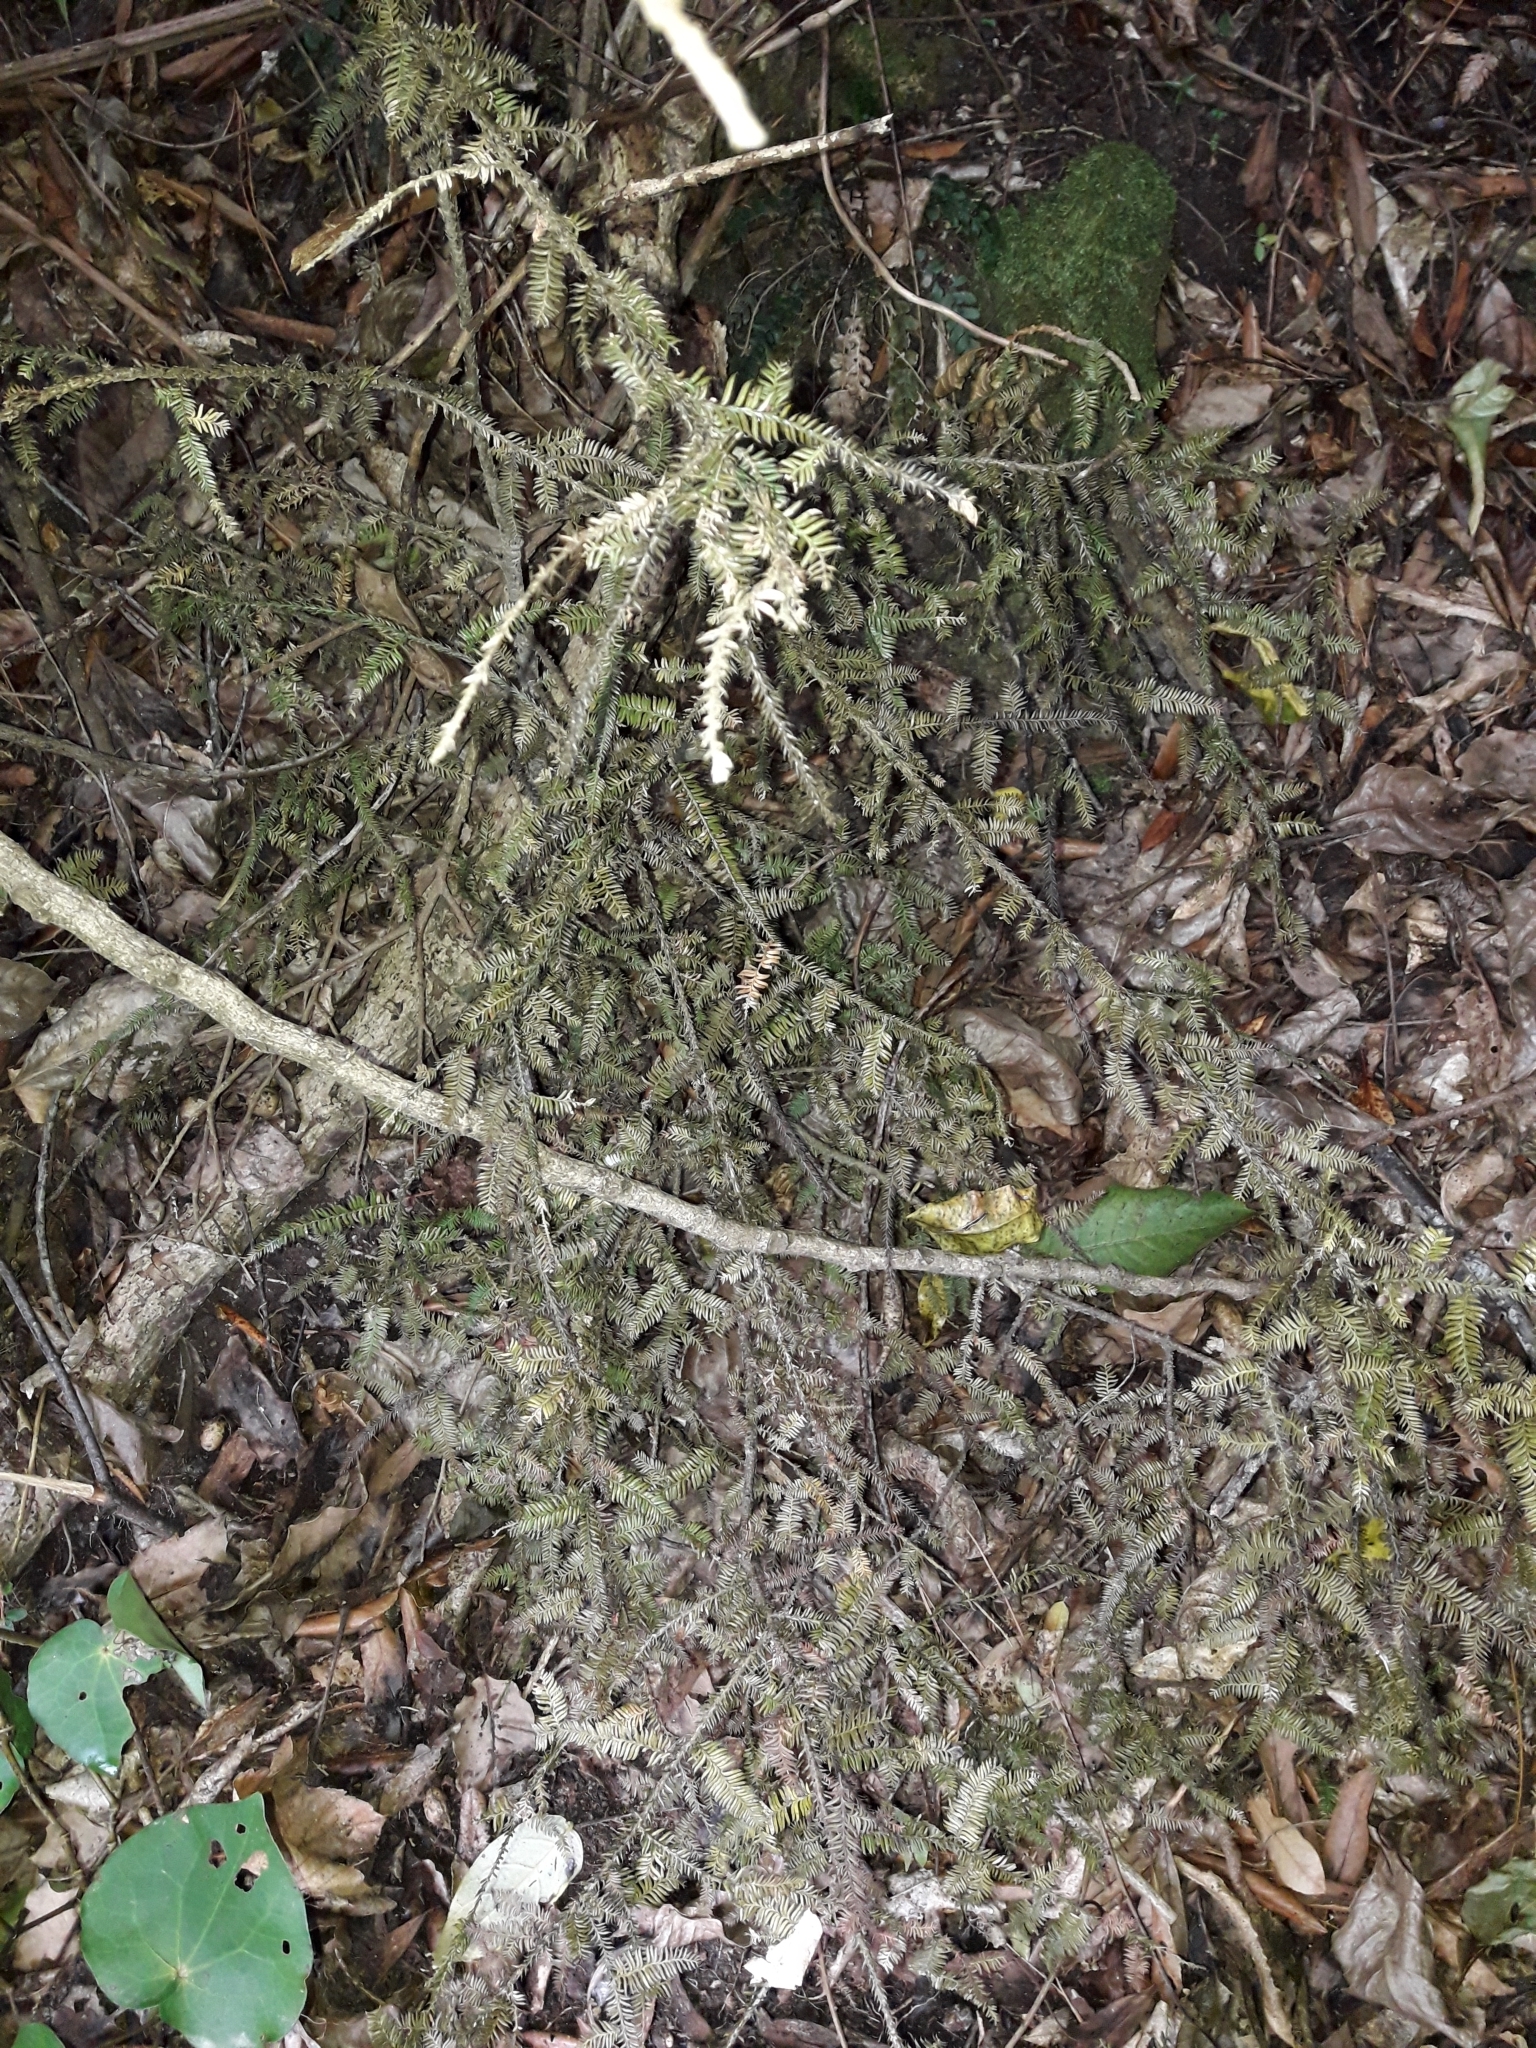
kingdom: Plantae
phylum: Tracheophyta
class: Pinopsida
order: Pinales
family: Podocarpaceae
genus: Dacrycarpus
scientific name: Dacrycarpus dacrydioides
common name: White pine
